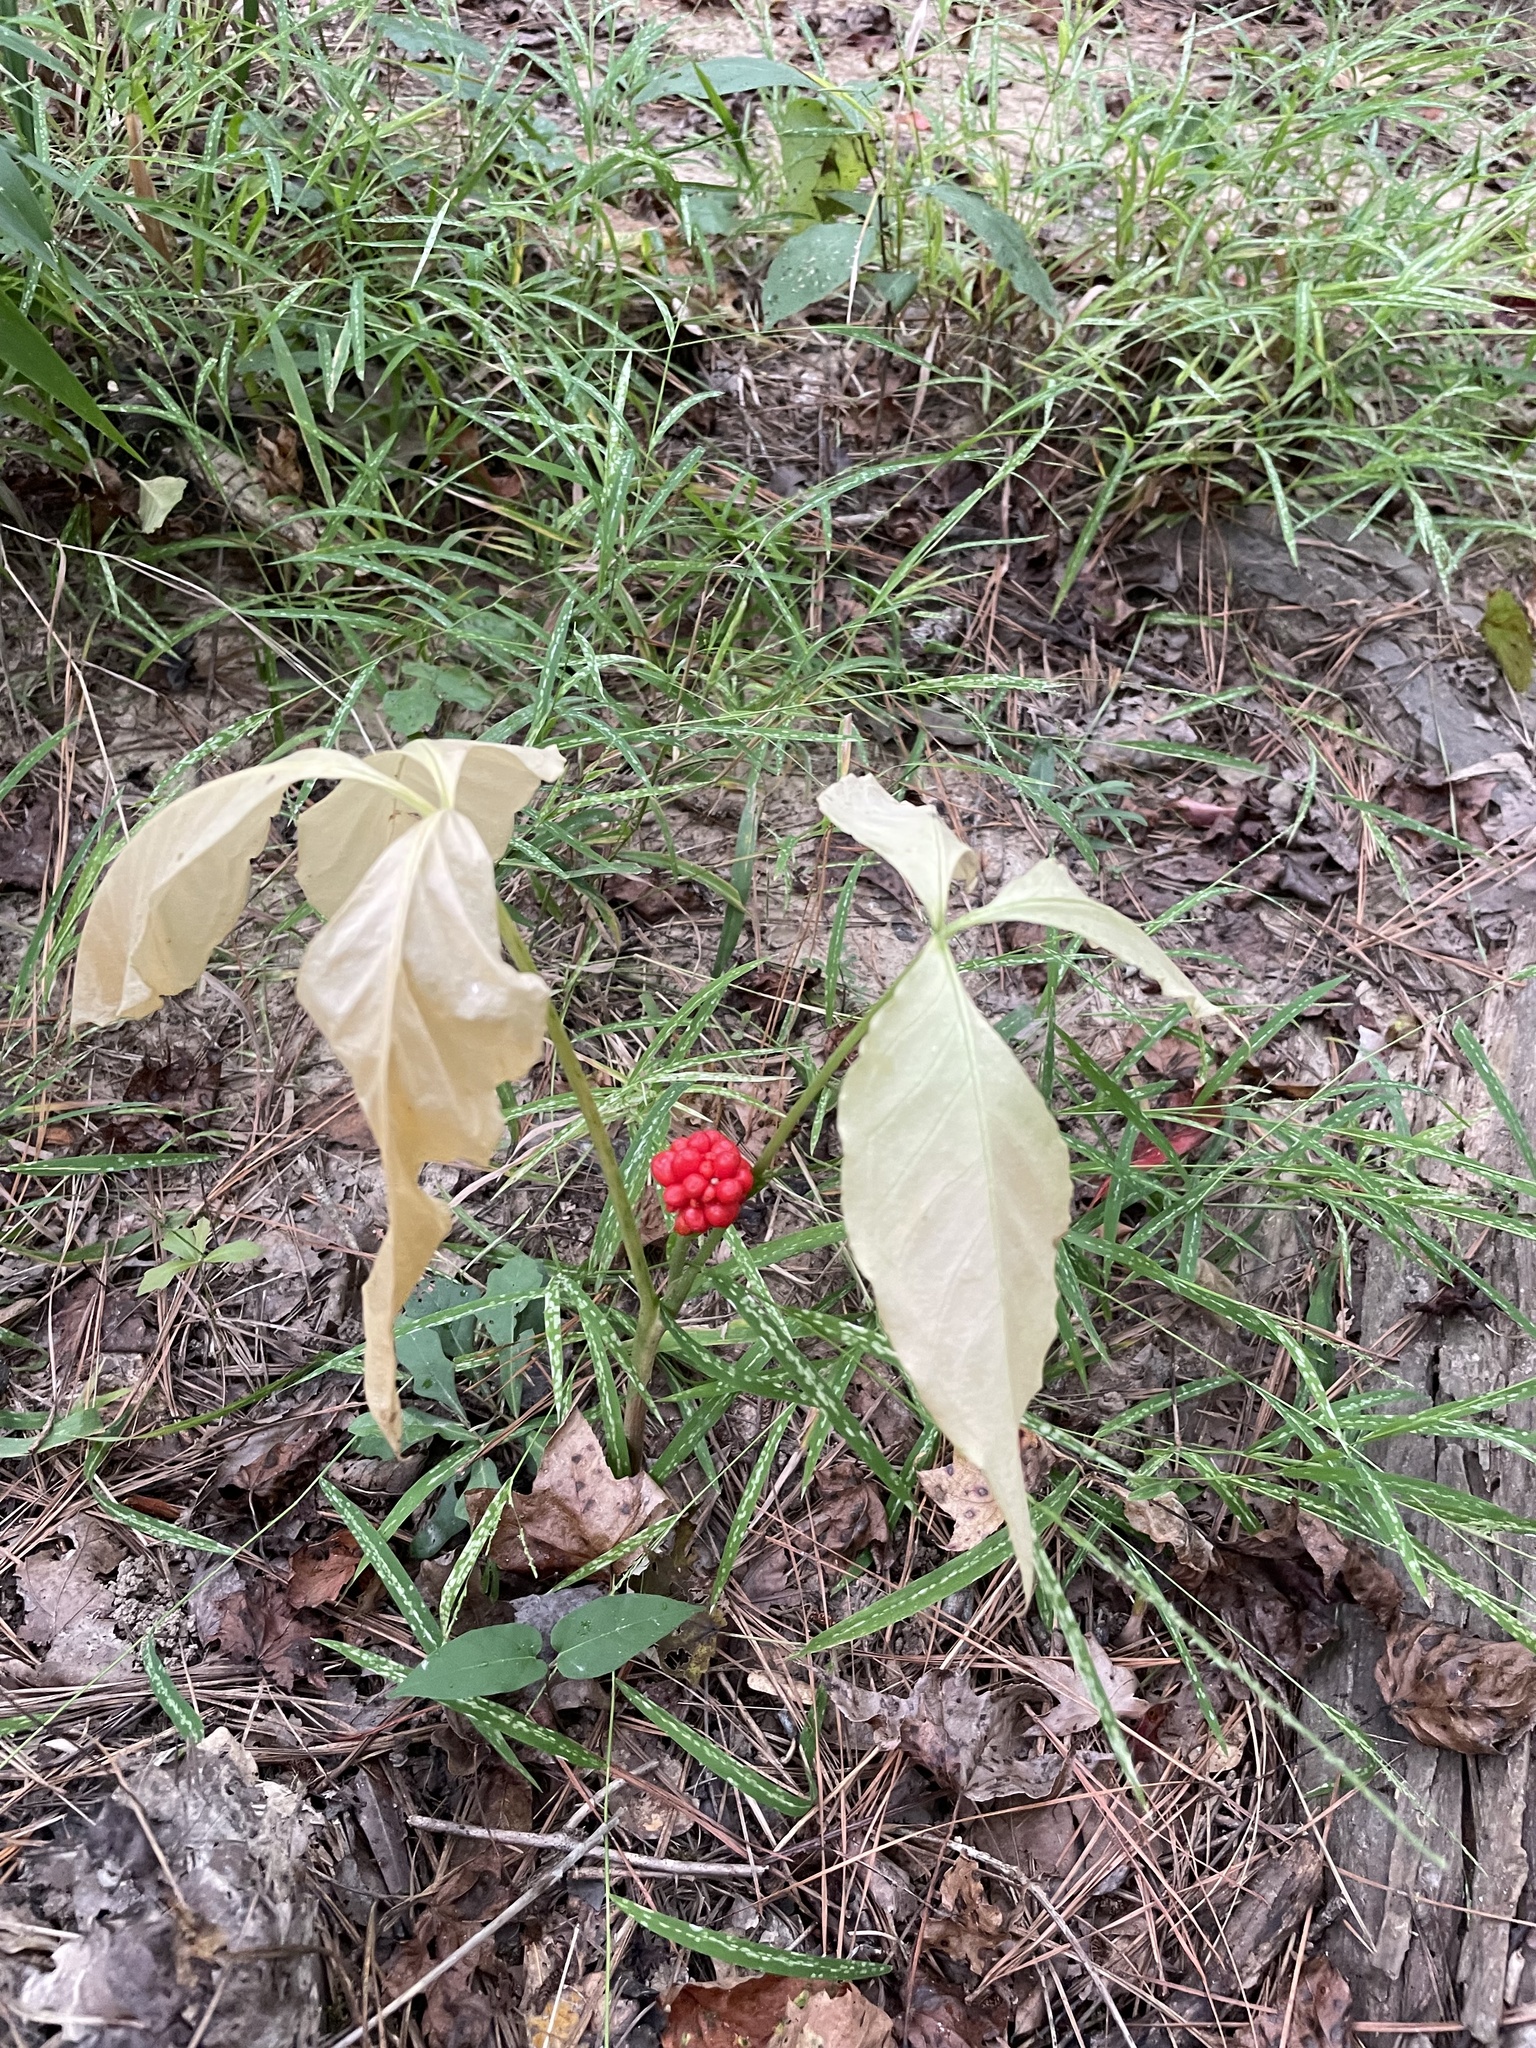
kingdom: Plantae
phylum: Tracheophyta
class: Liliopsida
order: Alismatales
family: Araceae
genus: Arisaema
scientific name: Arisaema triphyllum
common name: Jack-in-the-pulpit
